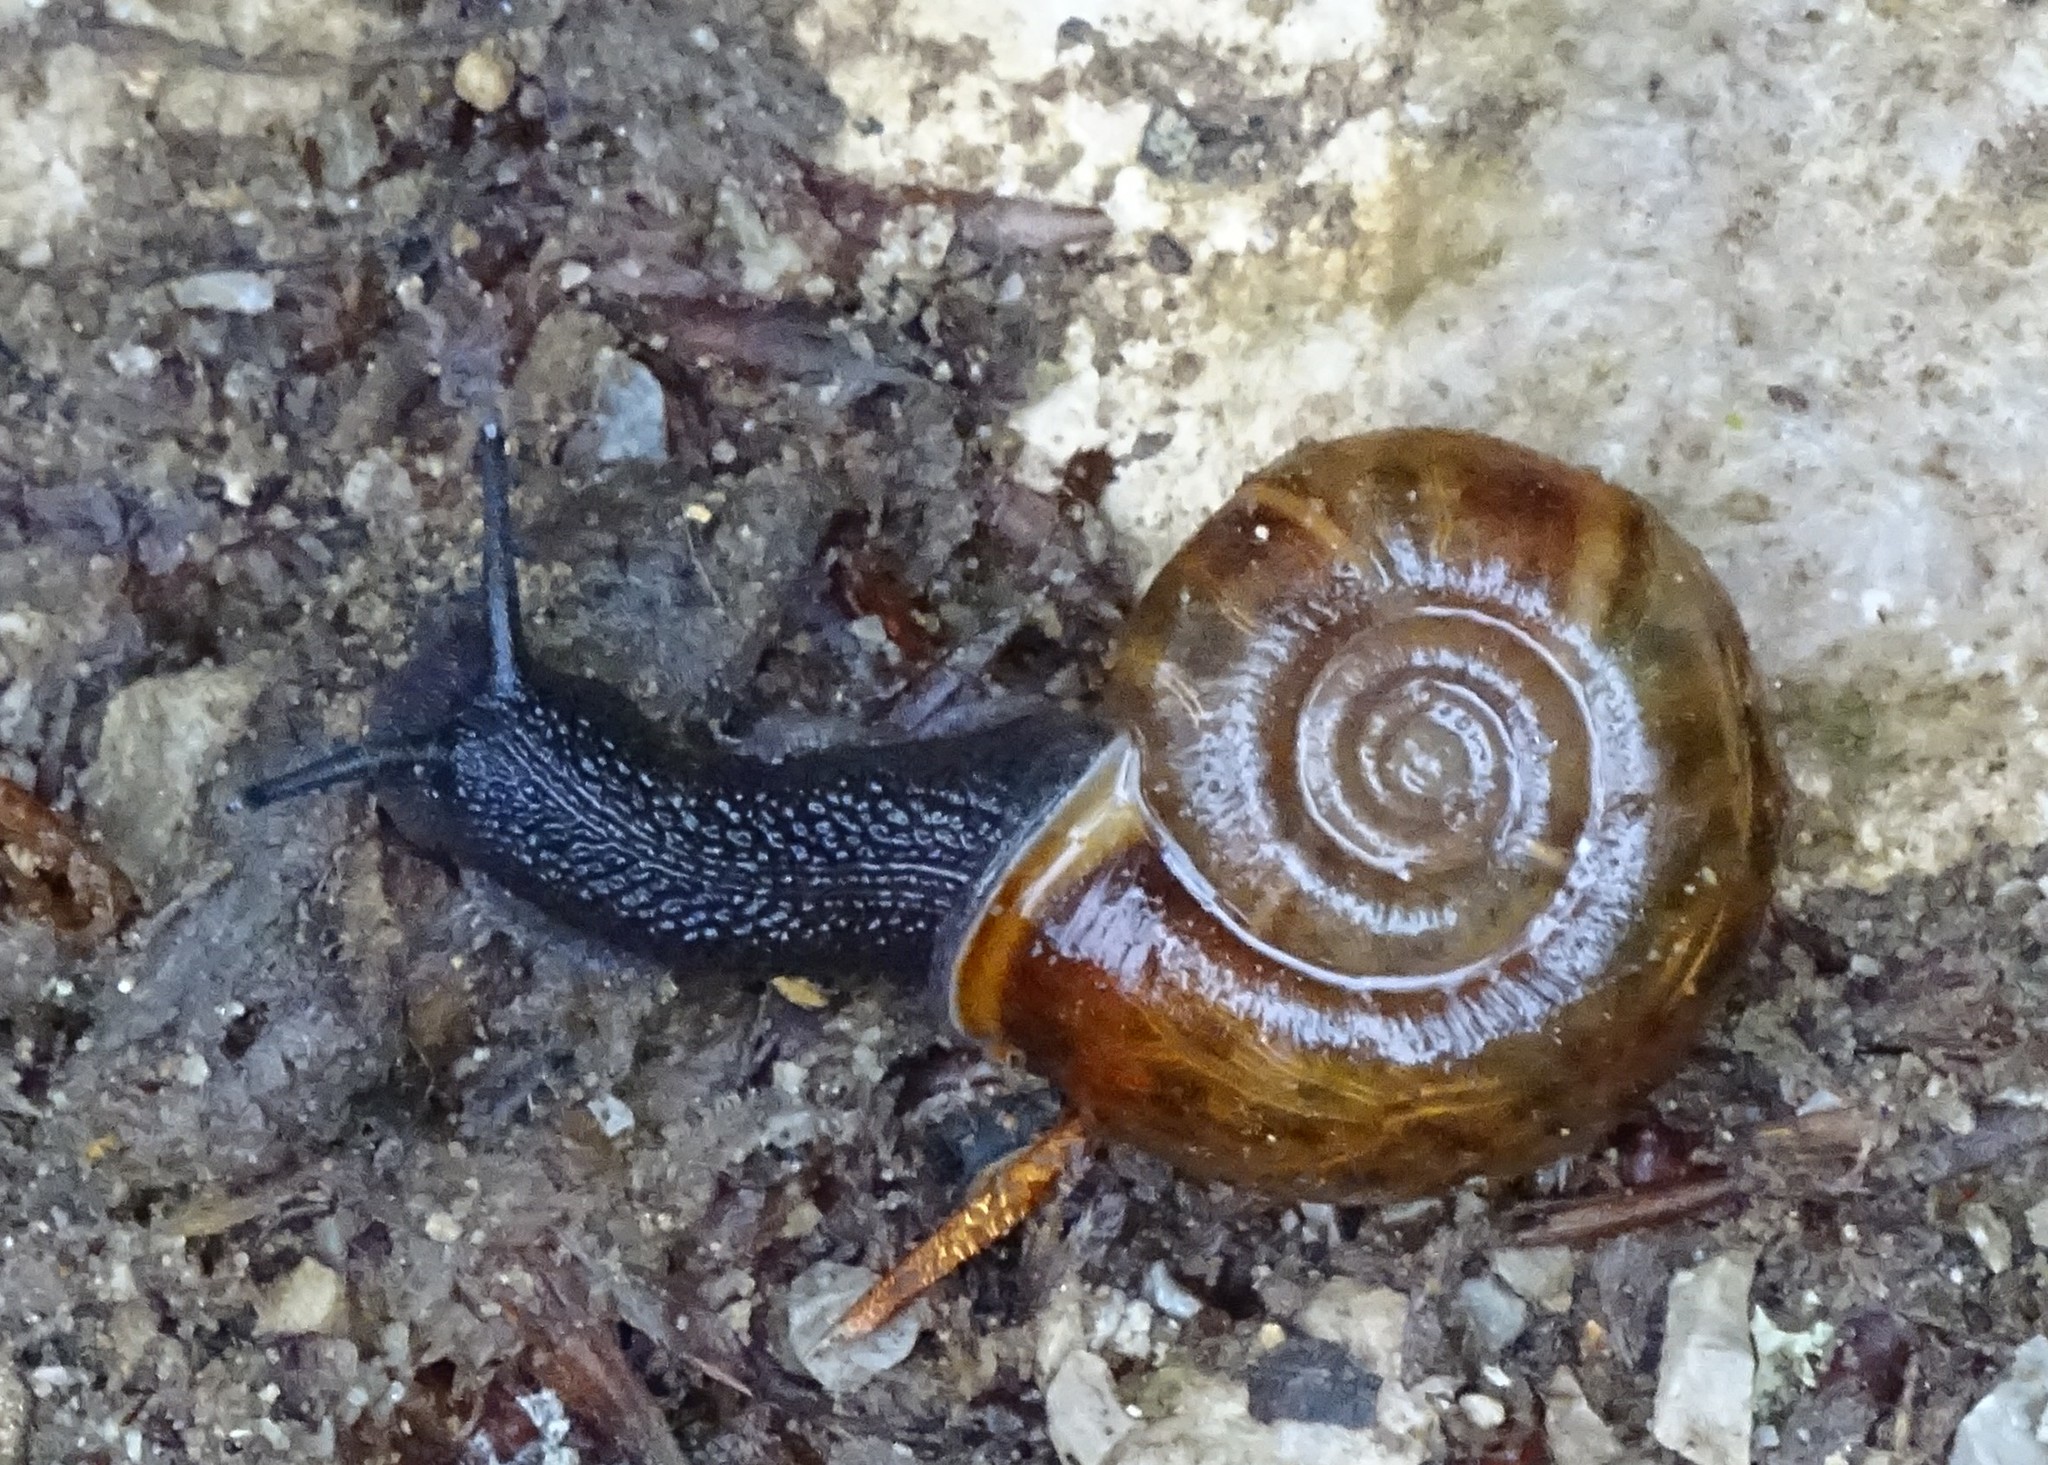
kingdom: Animalia
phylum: Mollusca
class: Gastropoda
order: Stylommatophora
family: Elonidae
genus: Elona
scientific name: Elona quimperiana
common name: Quimper snail
